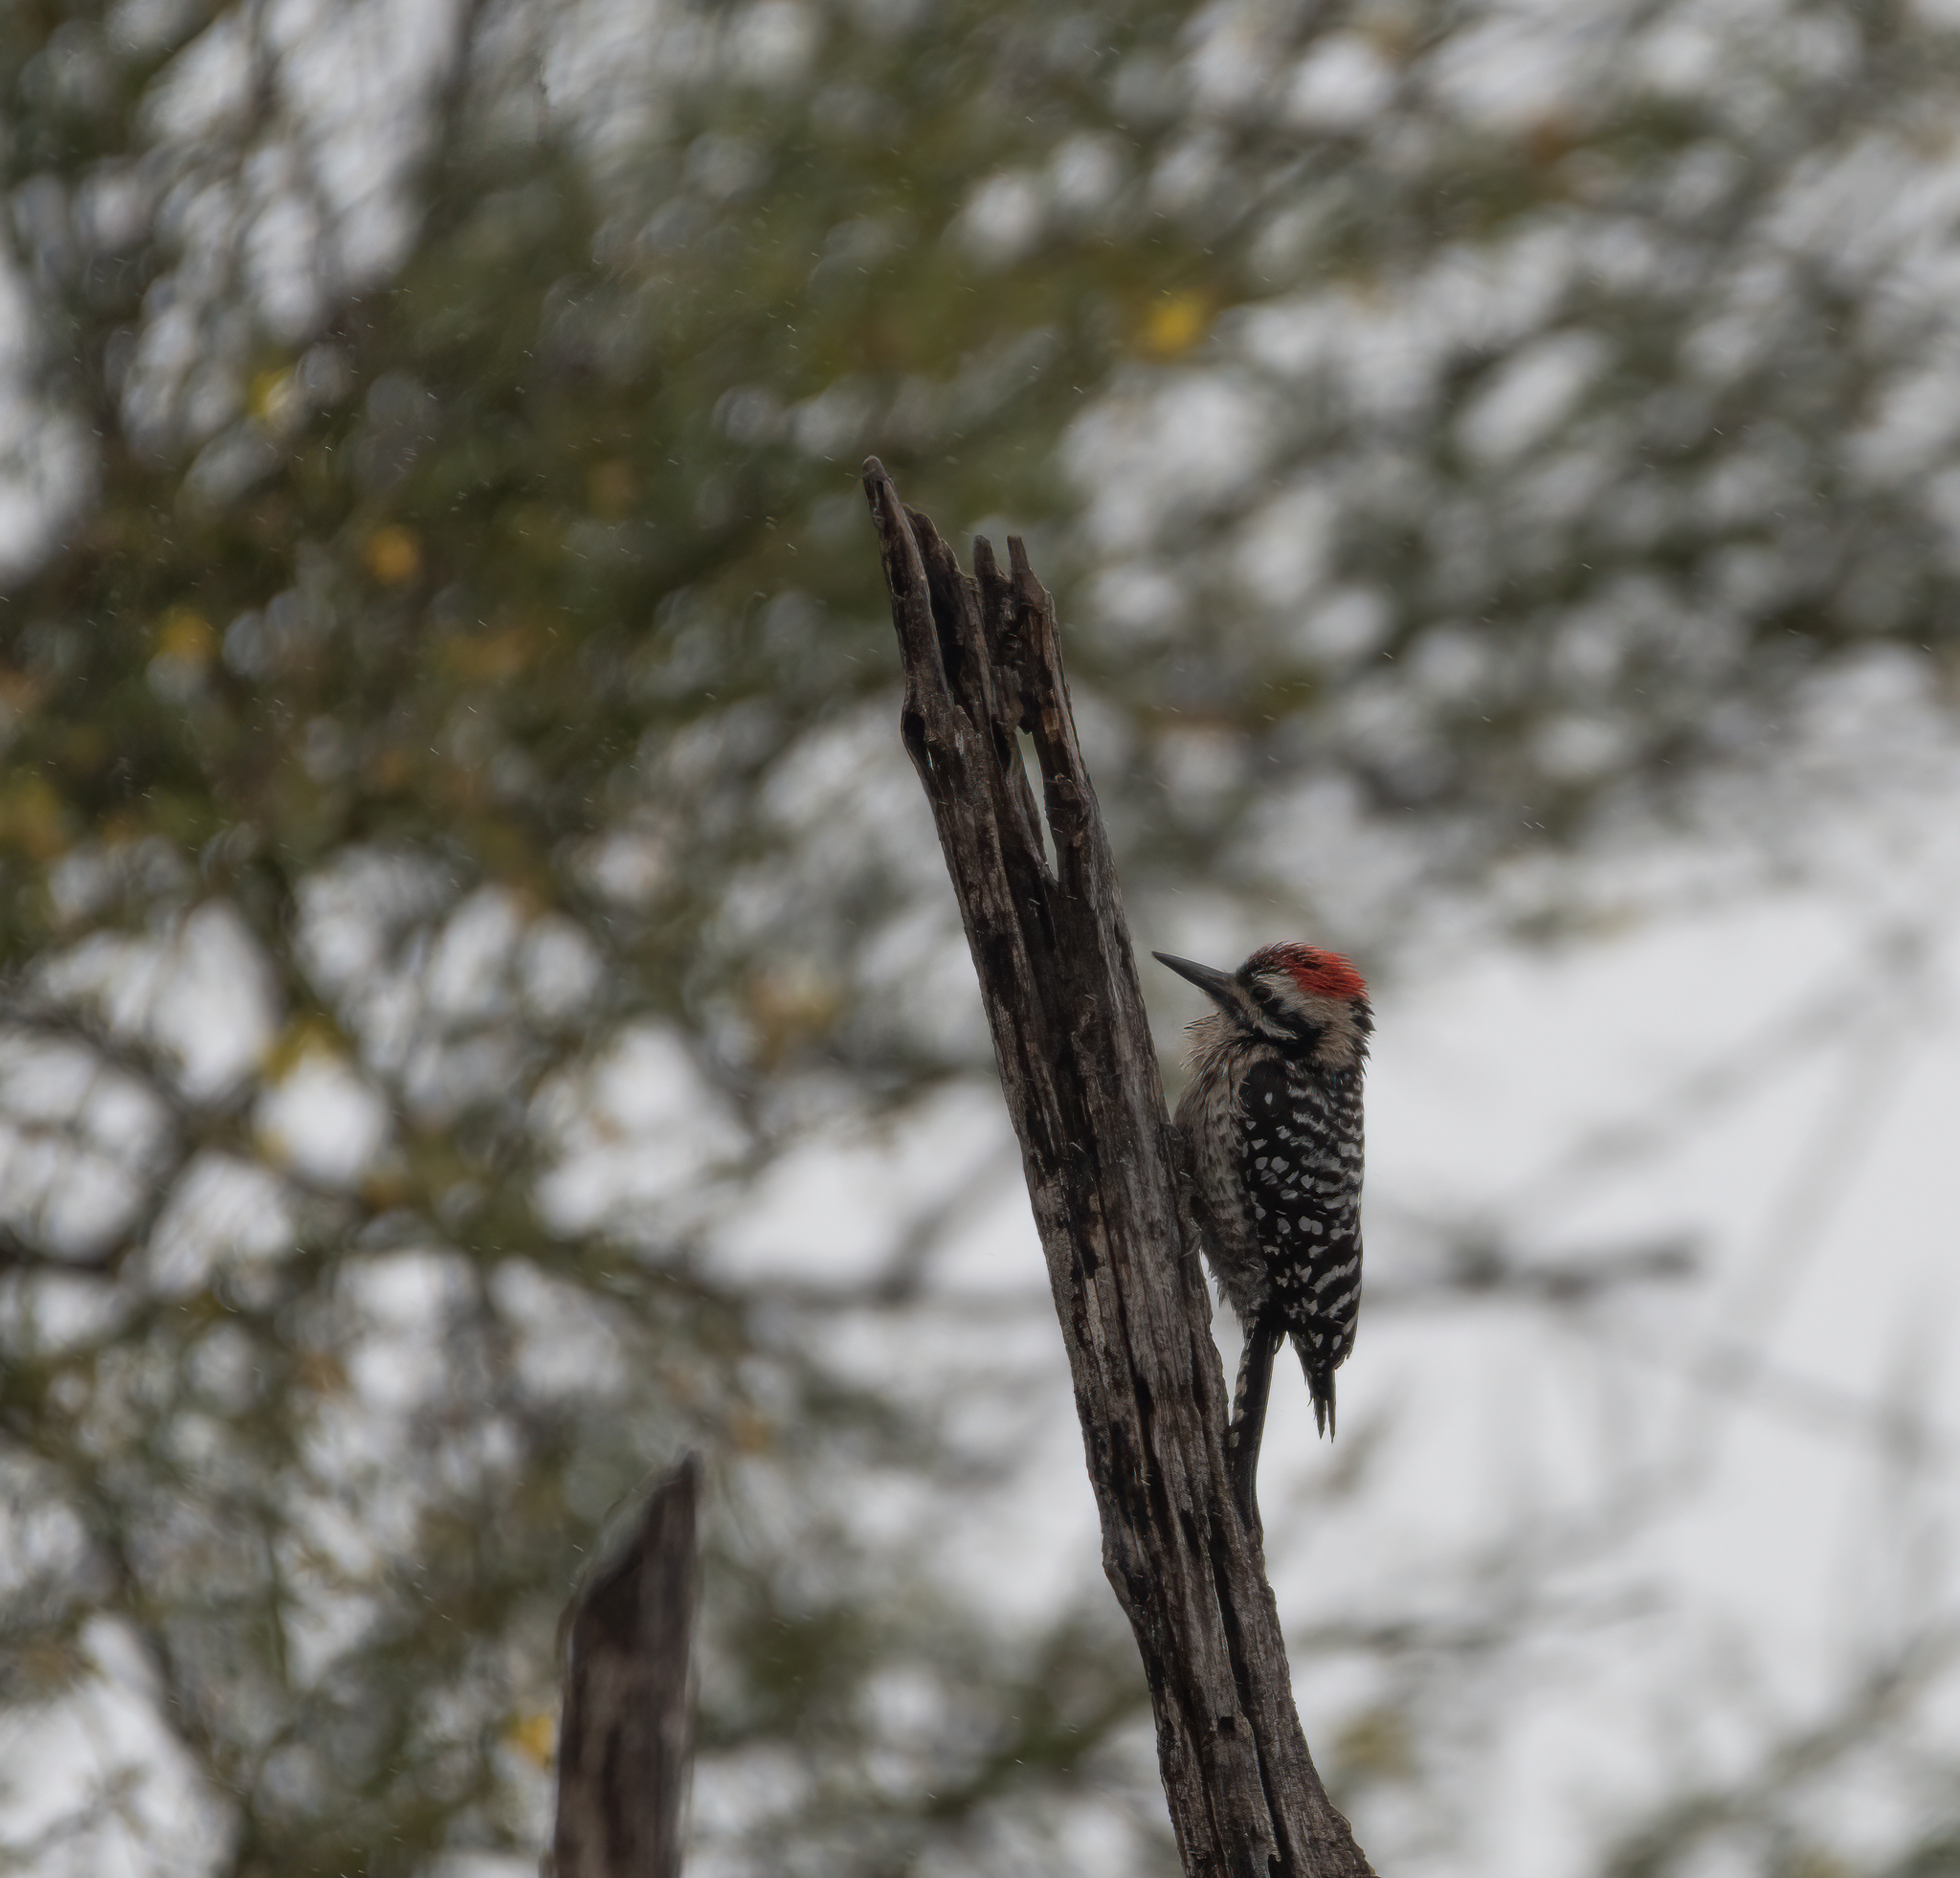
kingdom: Animalia
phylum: Chordata
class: Aves
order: Piciformes
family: Picidae
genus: Dryobates
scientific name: Dryobates scalaris
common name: Ladder-backed woodpecker
